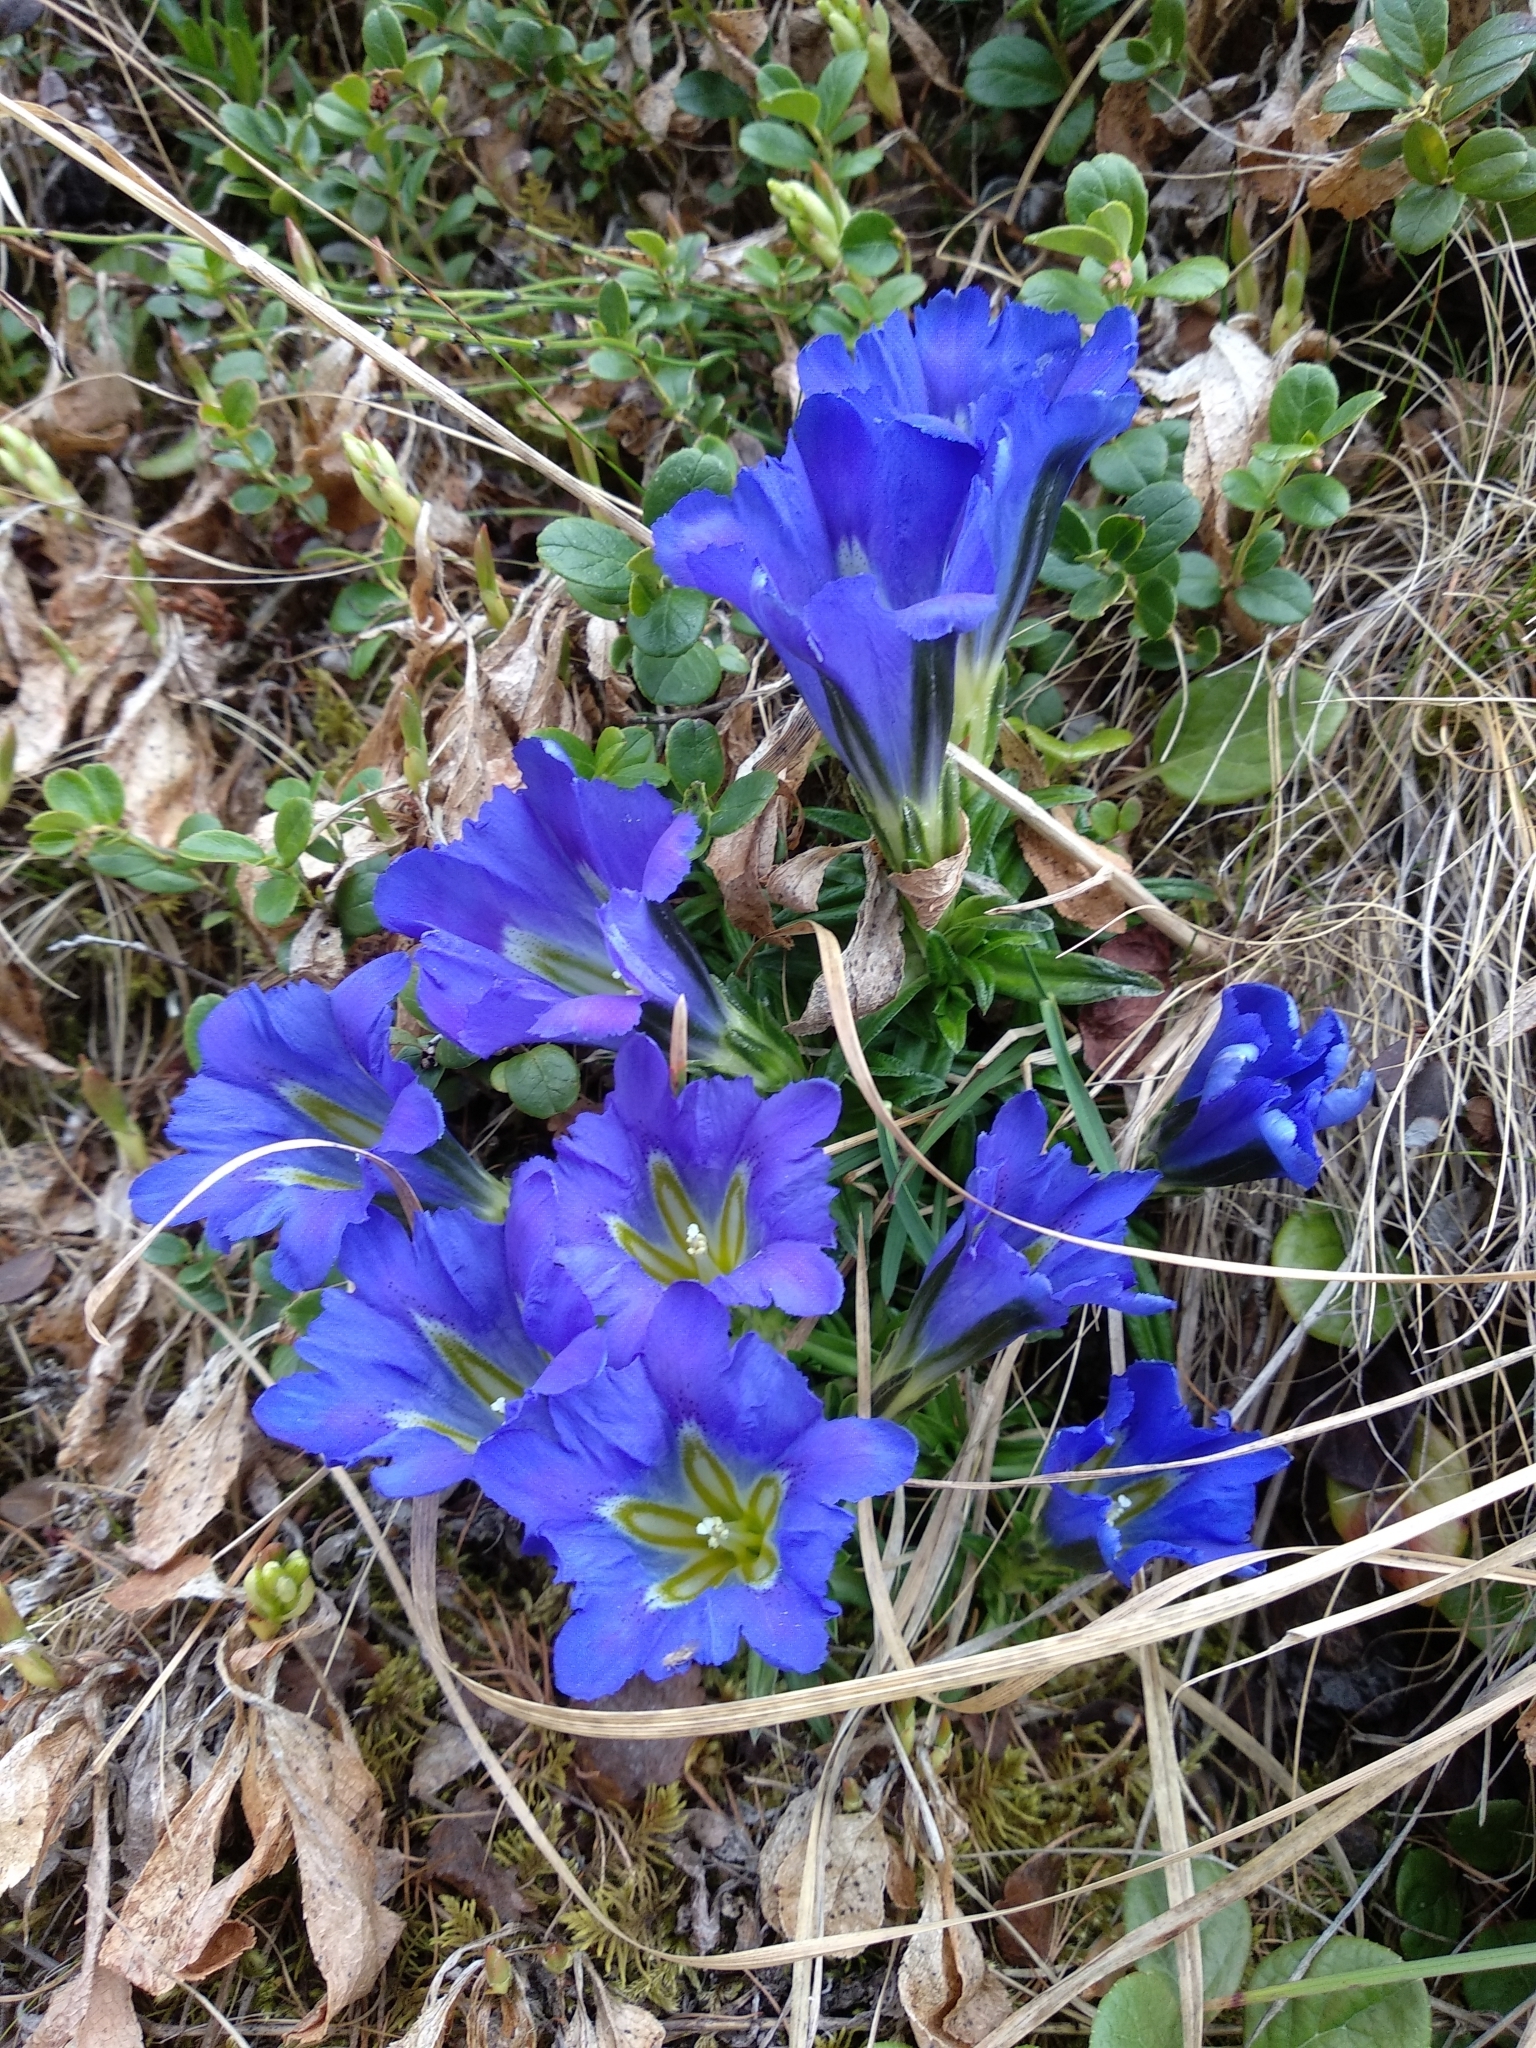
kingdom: Plantae
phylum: Tracheophyta
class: Magnoliopsida
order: Gentianales
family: Gentianaceae
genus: Gentiana
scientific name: Gentiana grandiflora
